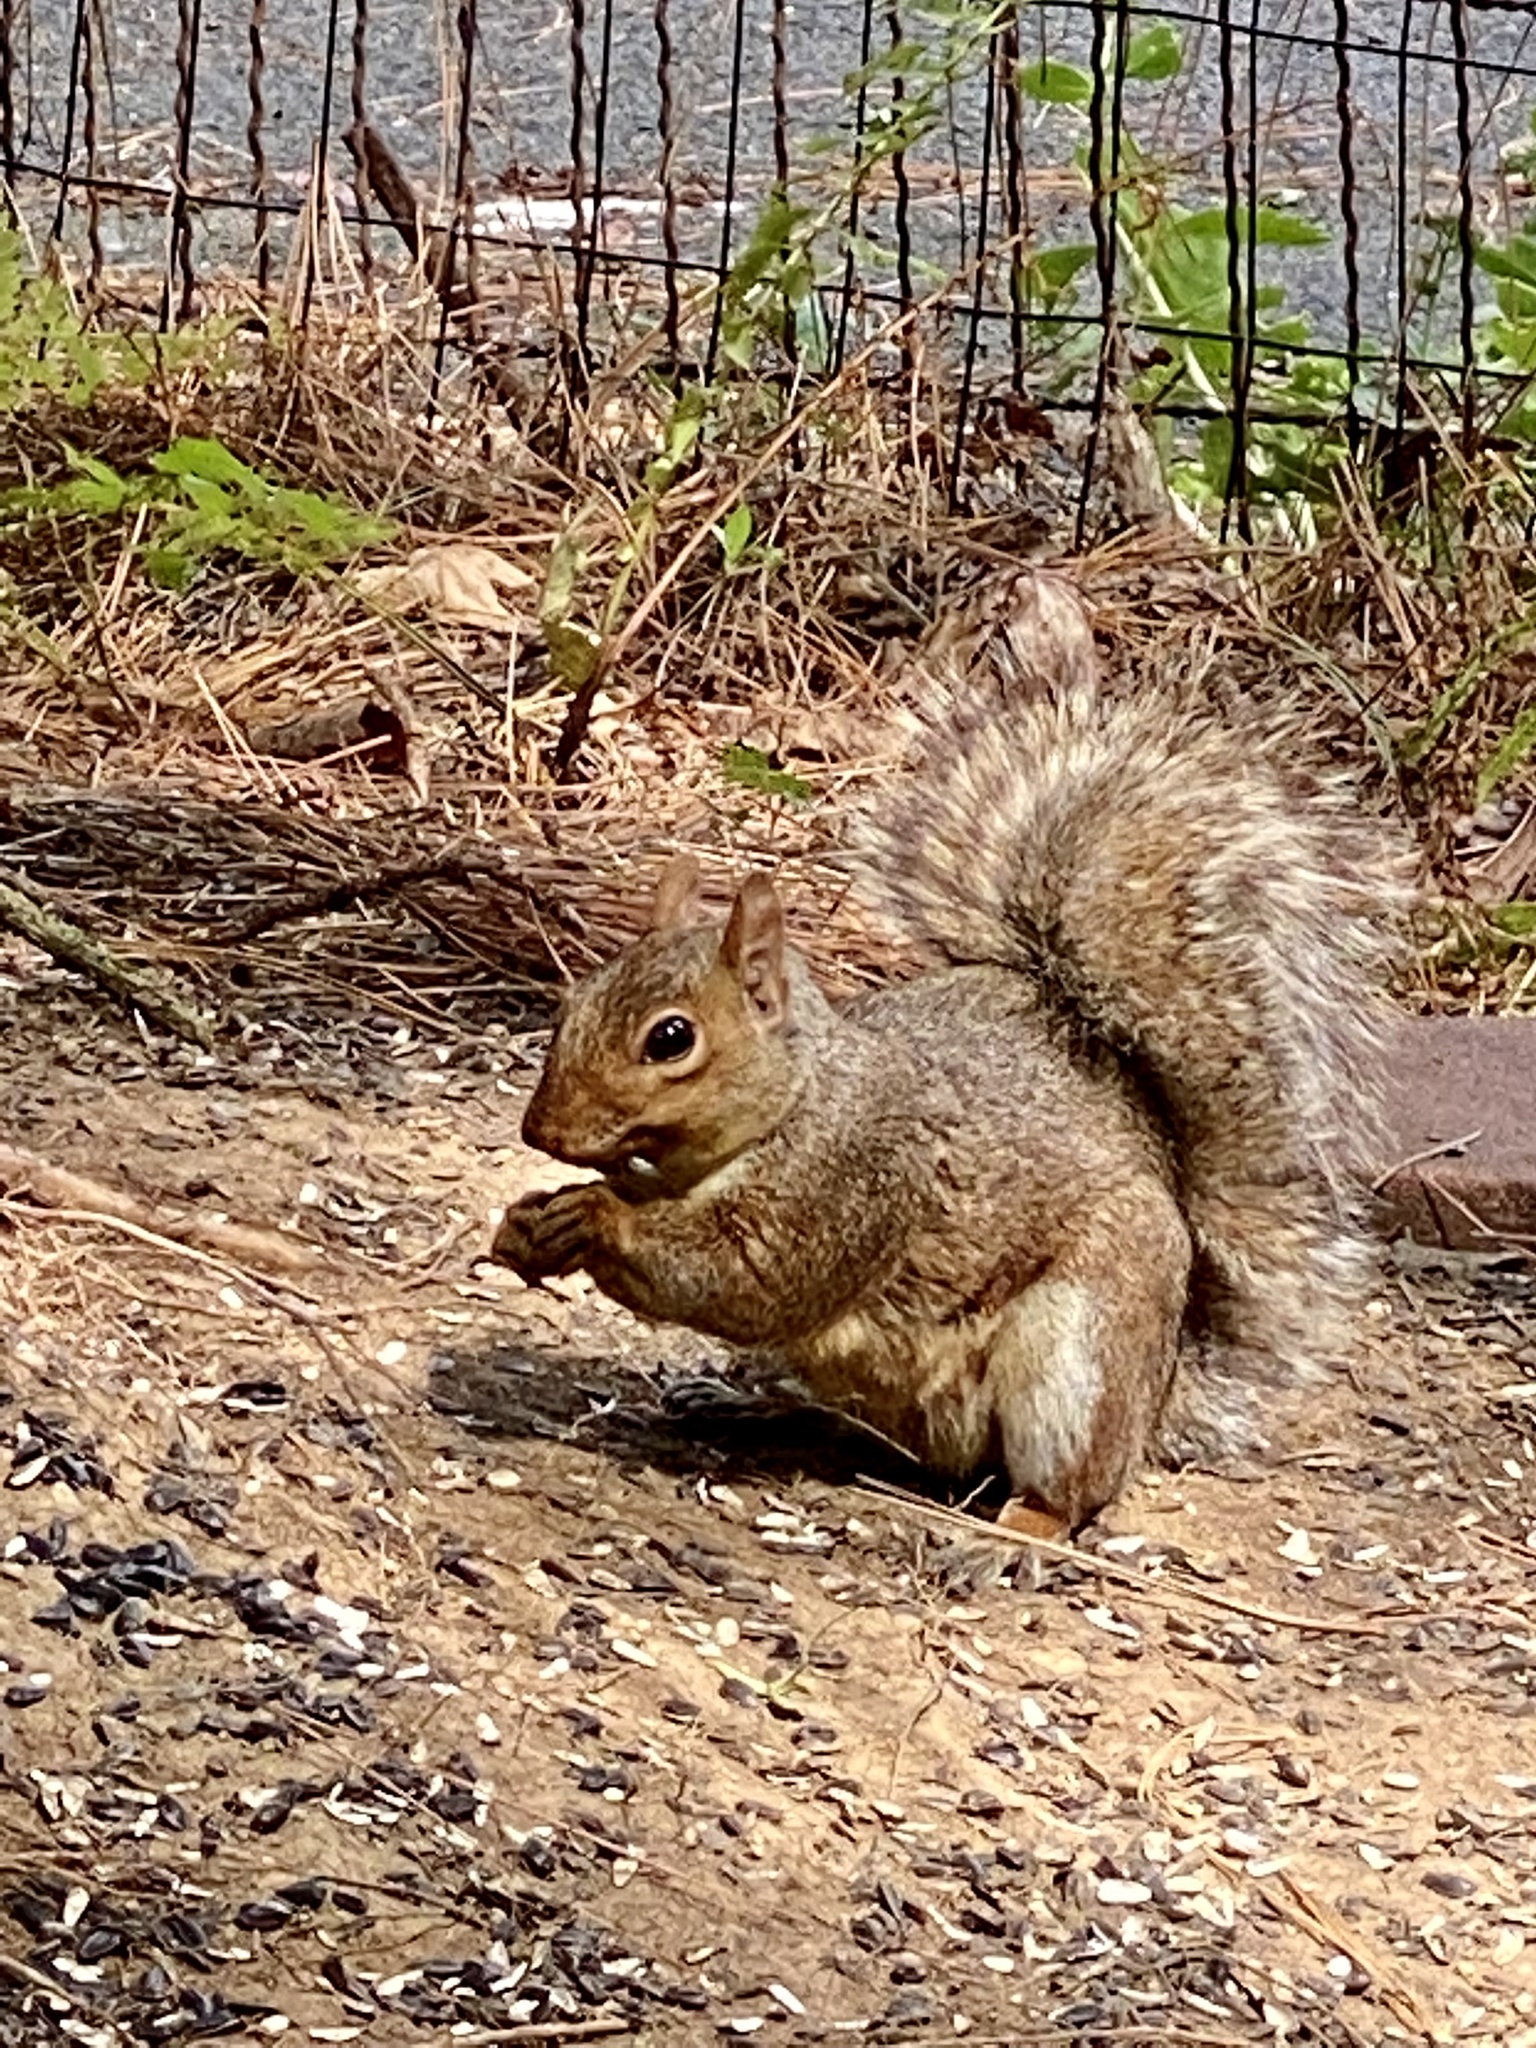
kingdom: Animalia
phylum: Chordata
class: Mammalia
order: Rodentia
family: Sciuridae
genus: Sciurus
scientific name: Sciurus carolinensis
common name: Eastern gray squirrel
